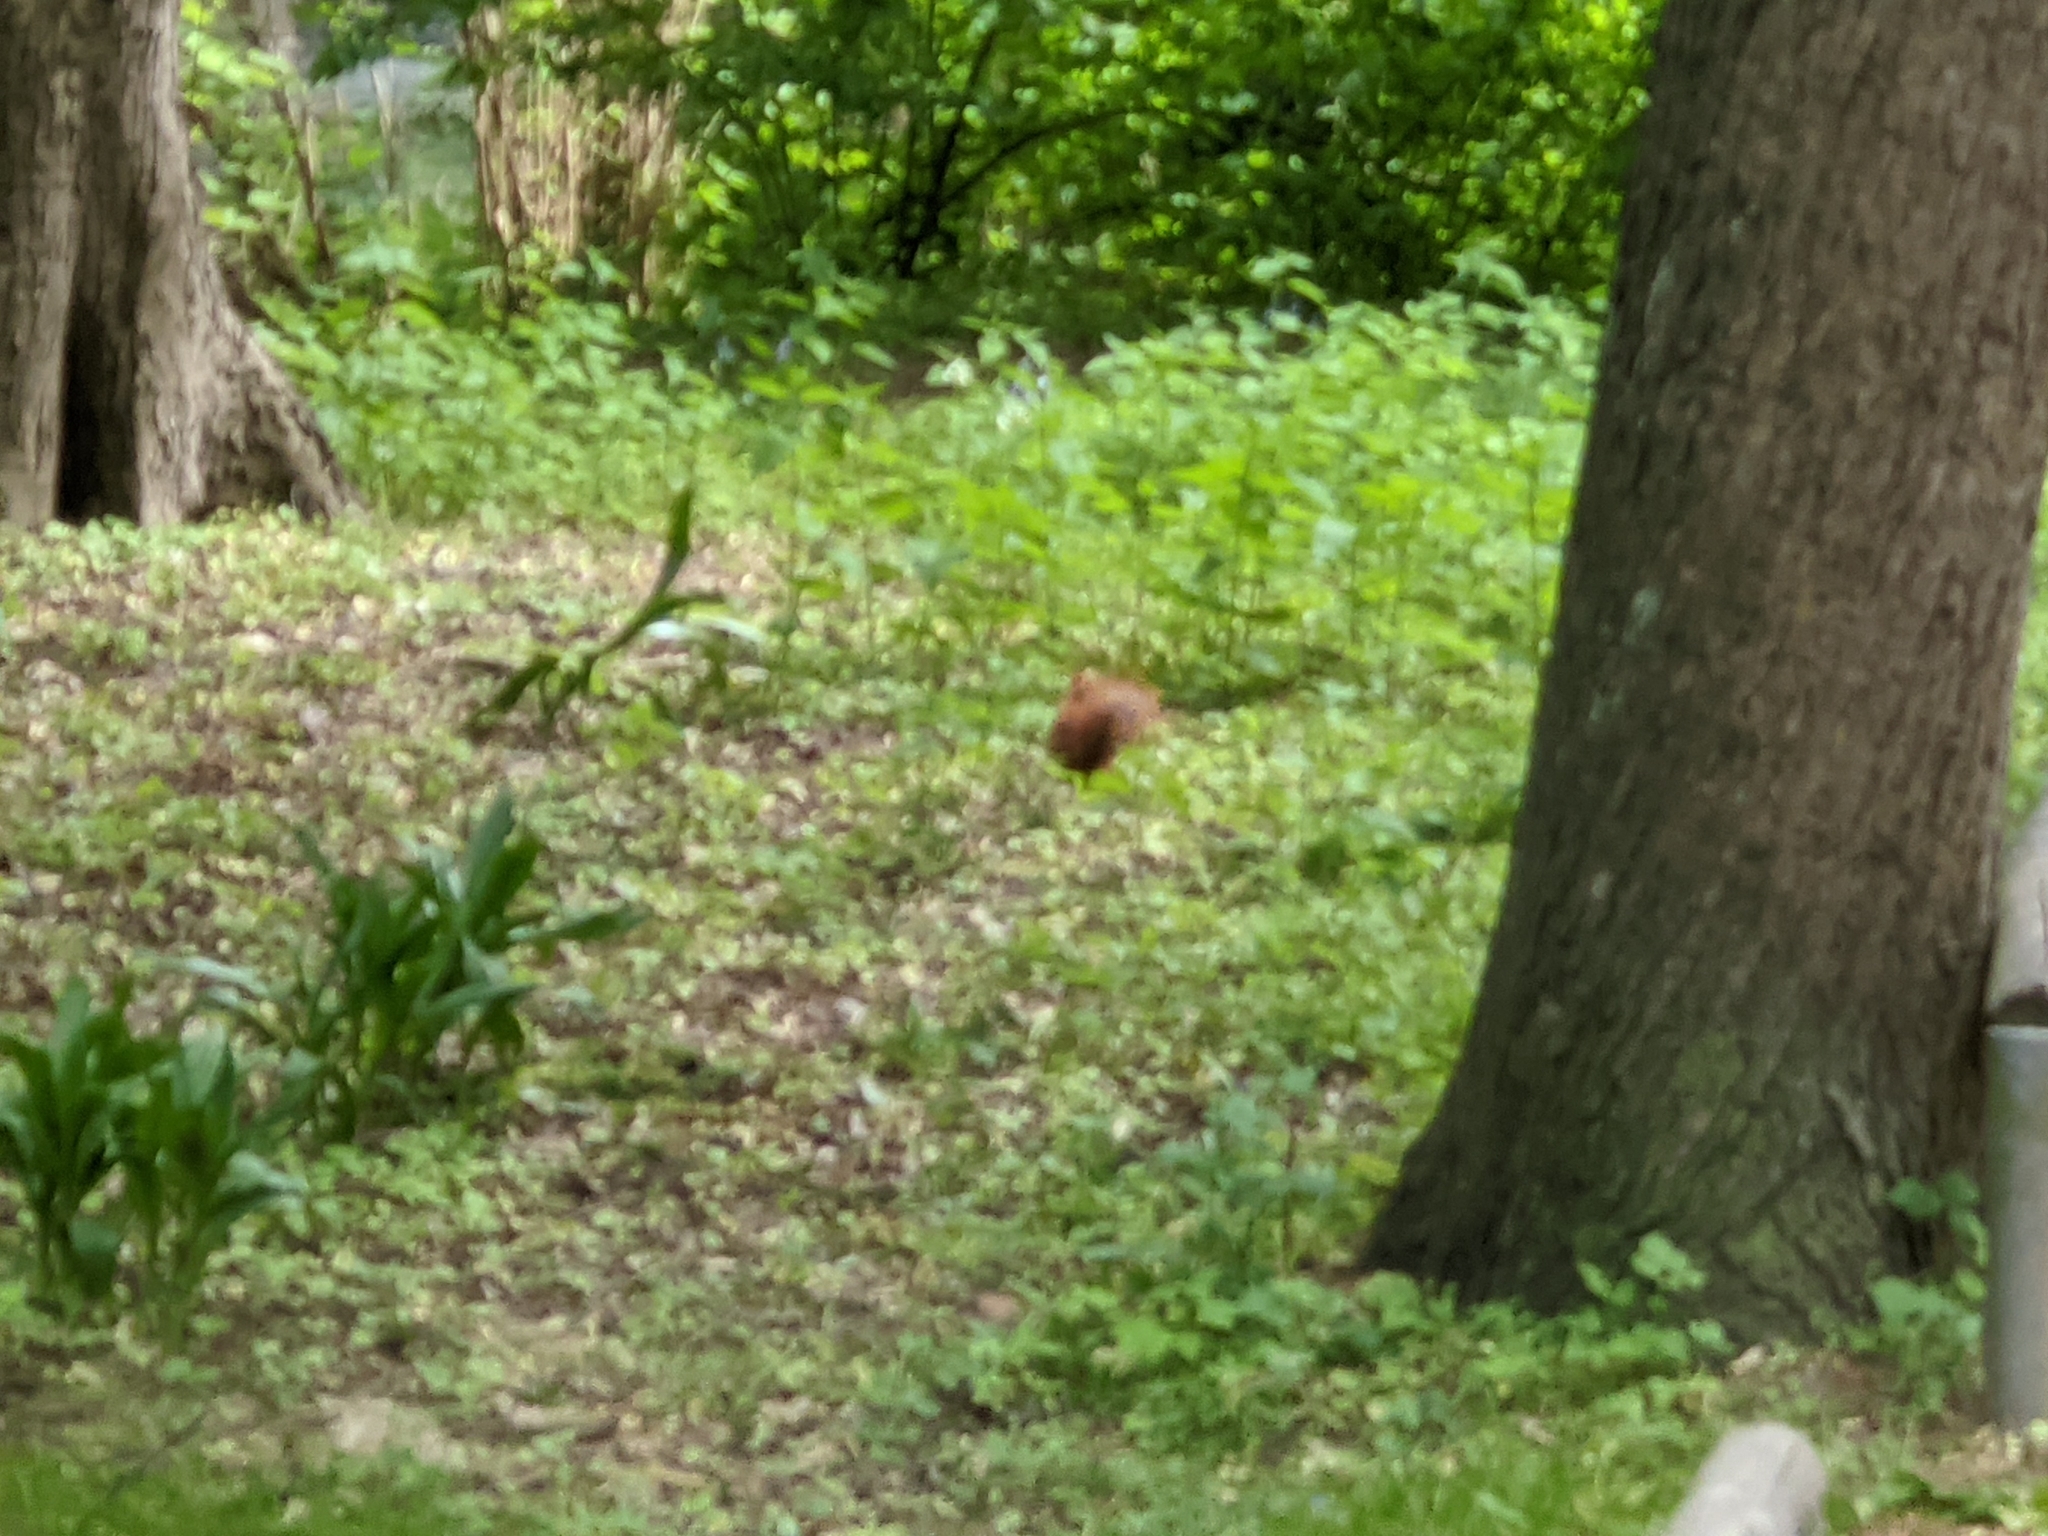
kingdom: Animalia
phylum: Chordata
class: Mammalia
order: Rodentia
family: Sciuridae
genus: Sciurus
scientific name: Sciurus vulgaris
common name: Eurasian red squirrel
